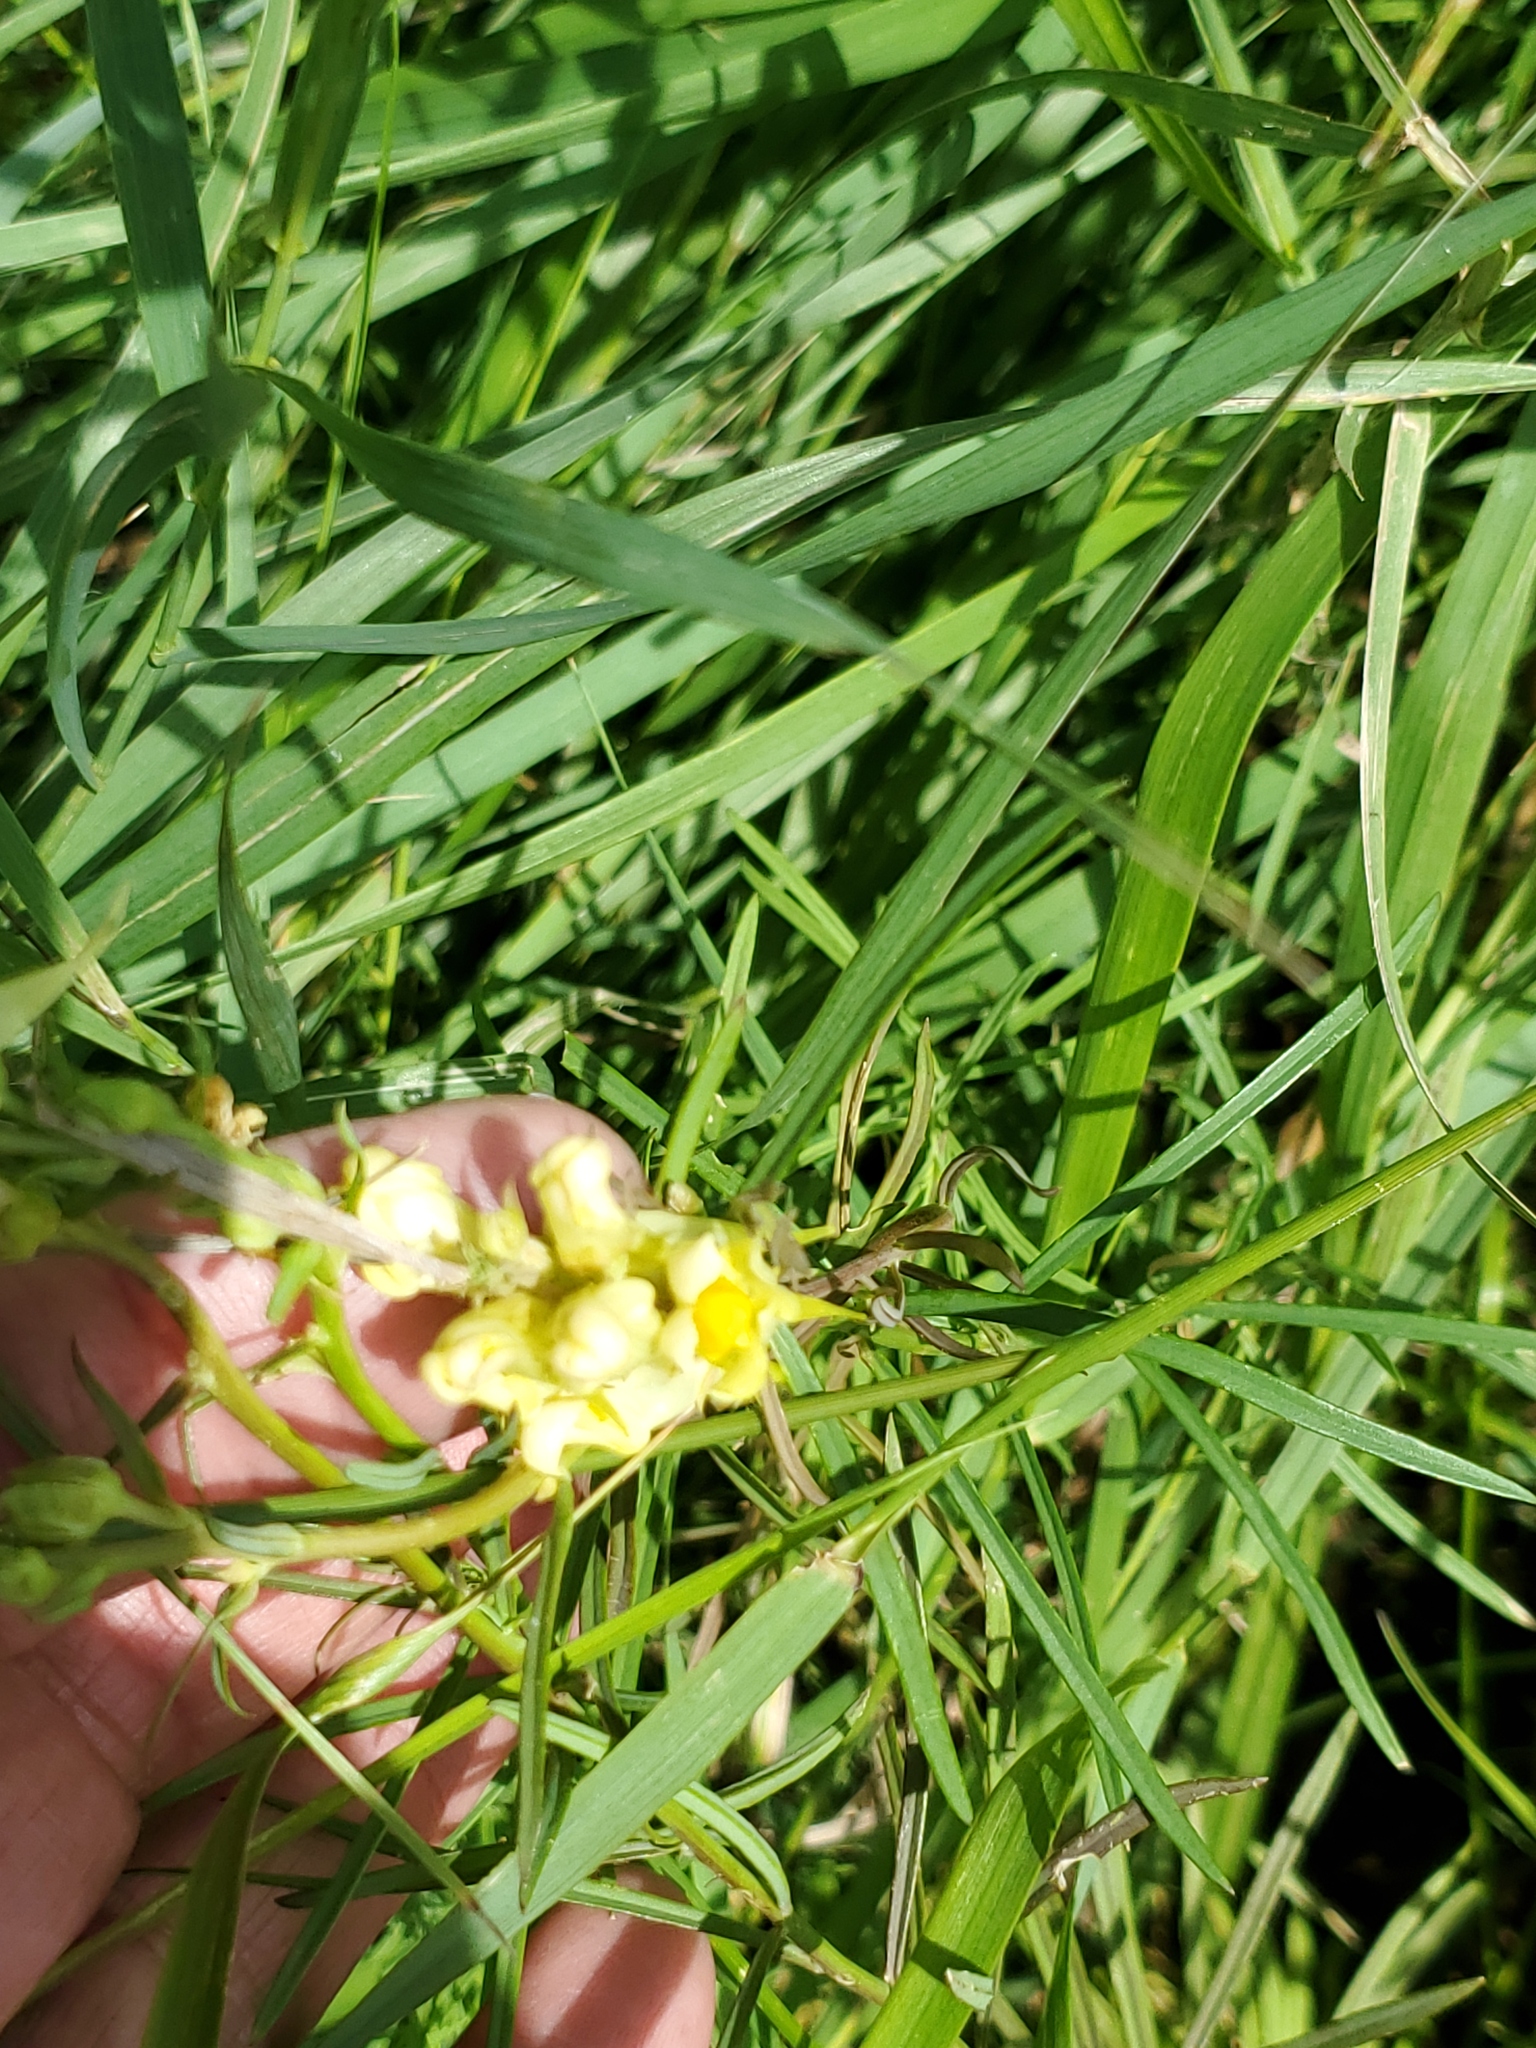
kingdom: Plantae
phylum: Tracheophyta
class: Magnoliopsida
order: Lamiales
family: Plantaginaceae
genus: Linaria
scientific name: Linaria vulgaris
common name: Butter and eggs
